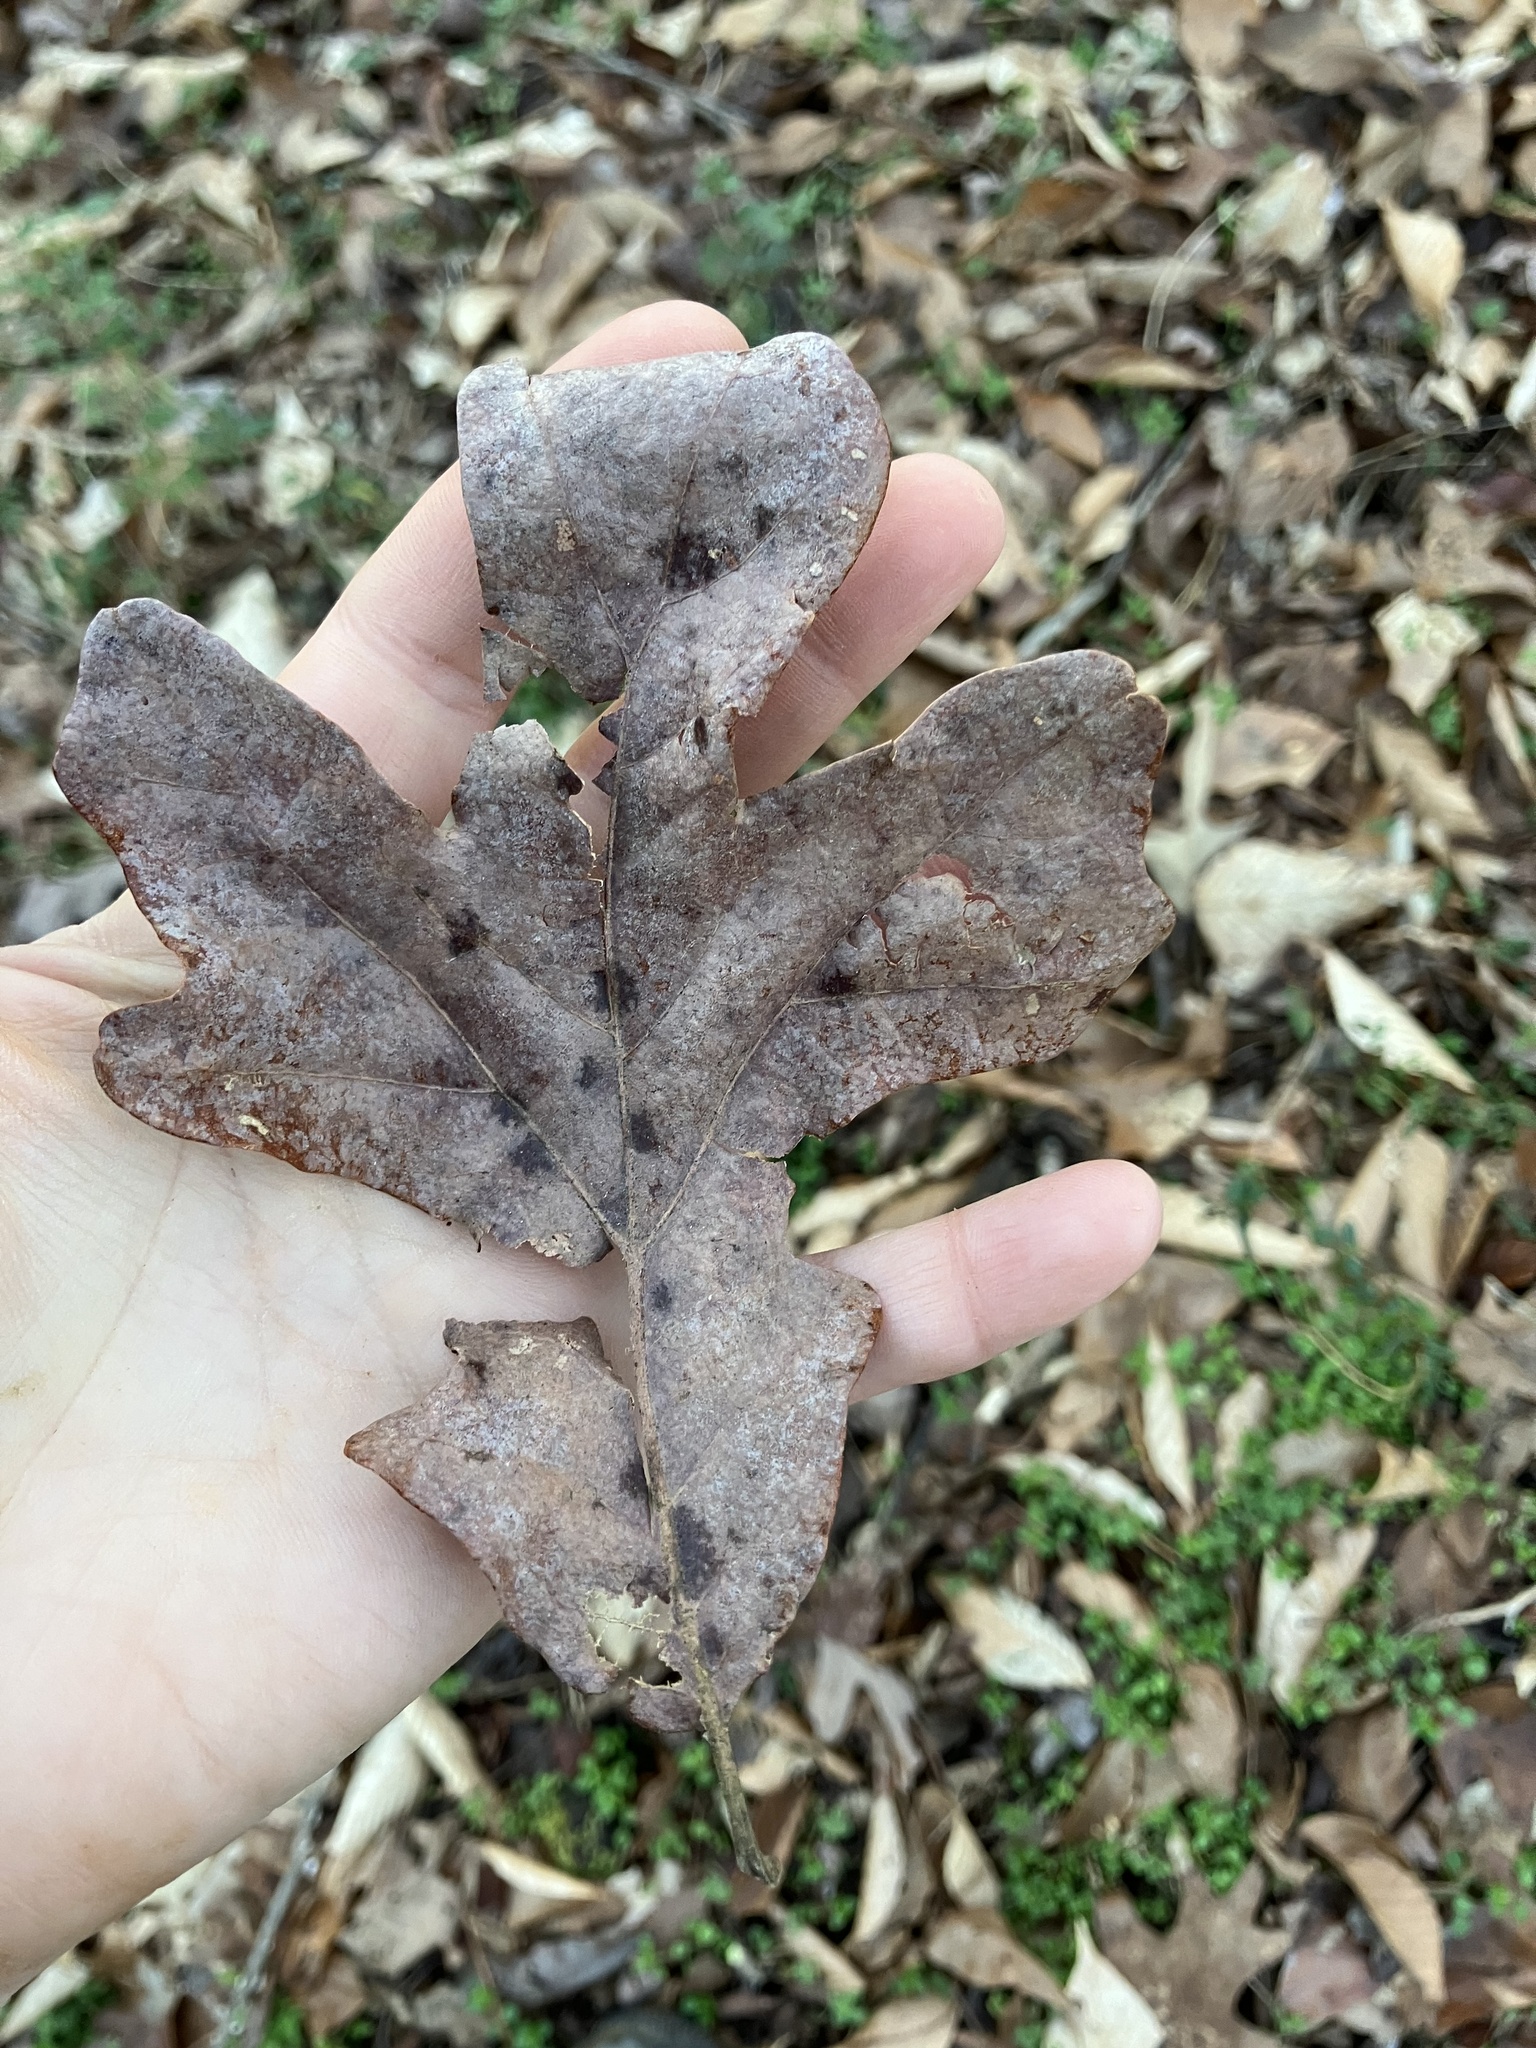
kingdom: Plantae
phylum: Tracheophyta
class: Magnoliopsida
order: Fagales
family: Fagaceae
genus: Quercus
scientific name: Quercus stellata
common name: Post oak
